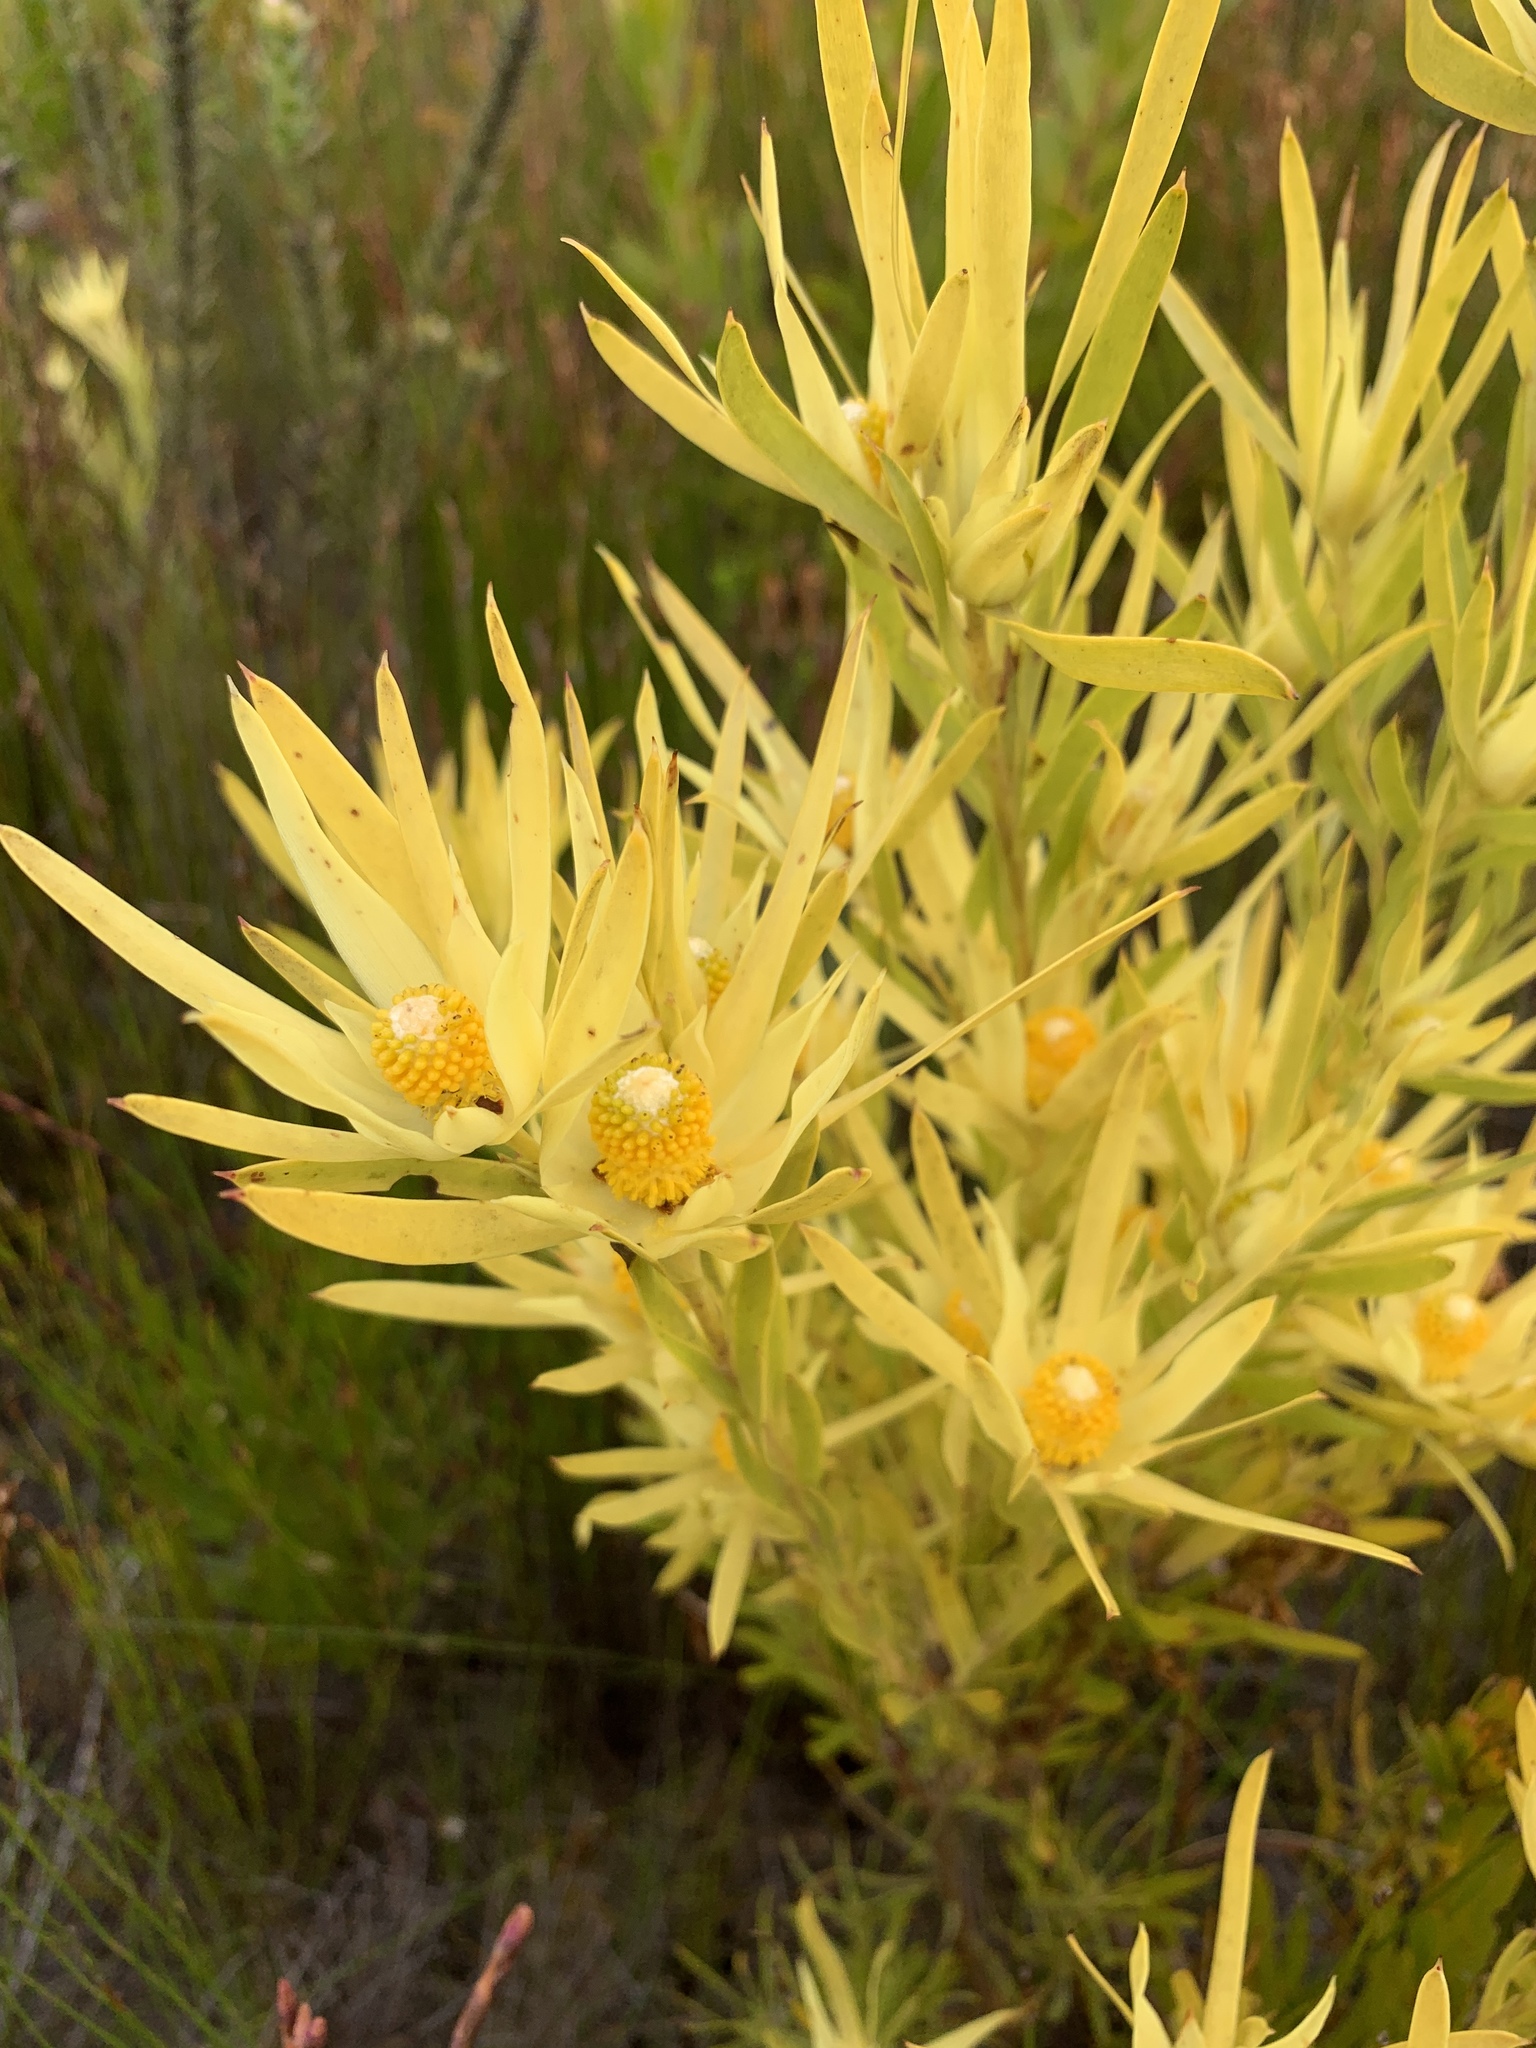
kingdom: Plantae
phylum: Tracheophyta
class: Magnoliopsida
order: Proteales
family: Proteaceae
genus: Leucadendron
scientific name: Leucadendron xanthoconus
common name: Sickle-leaf conebush
